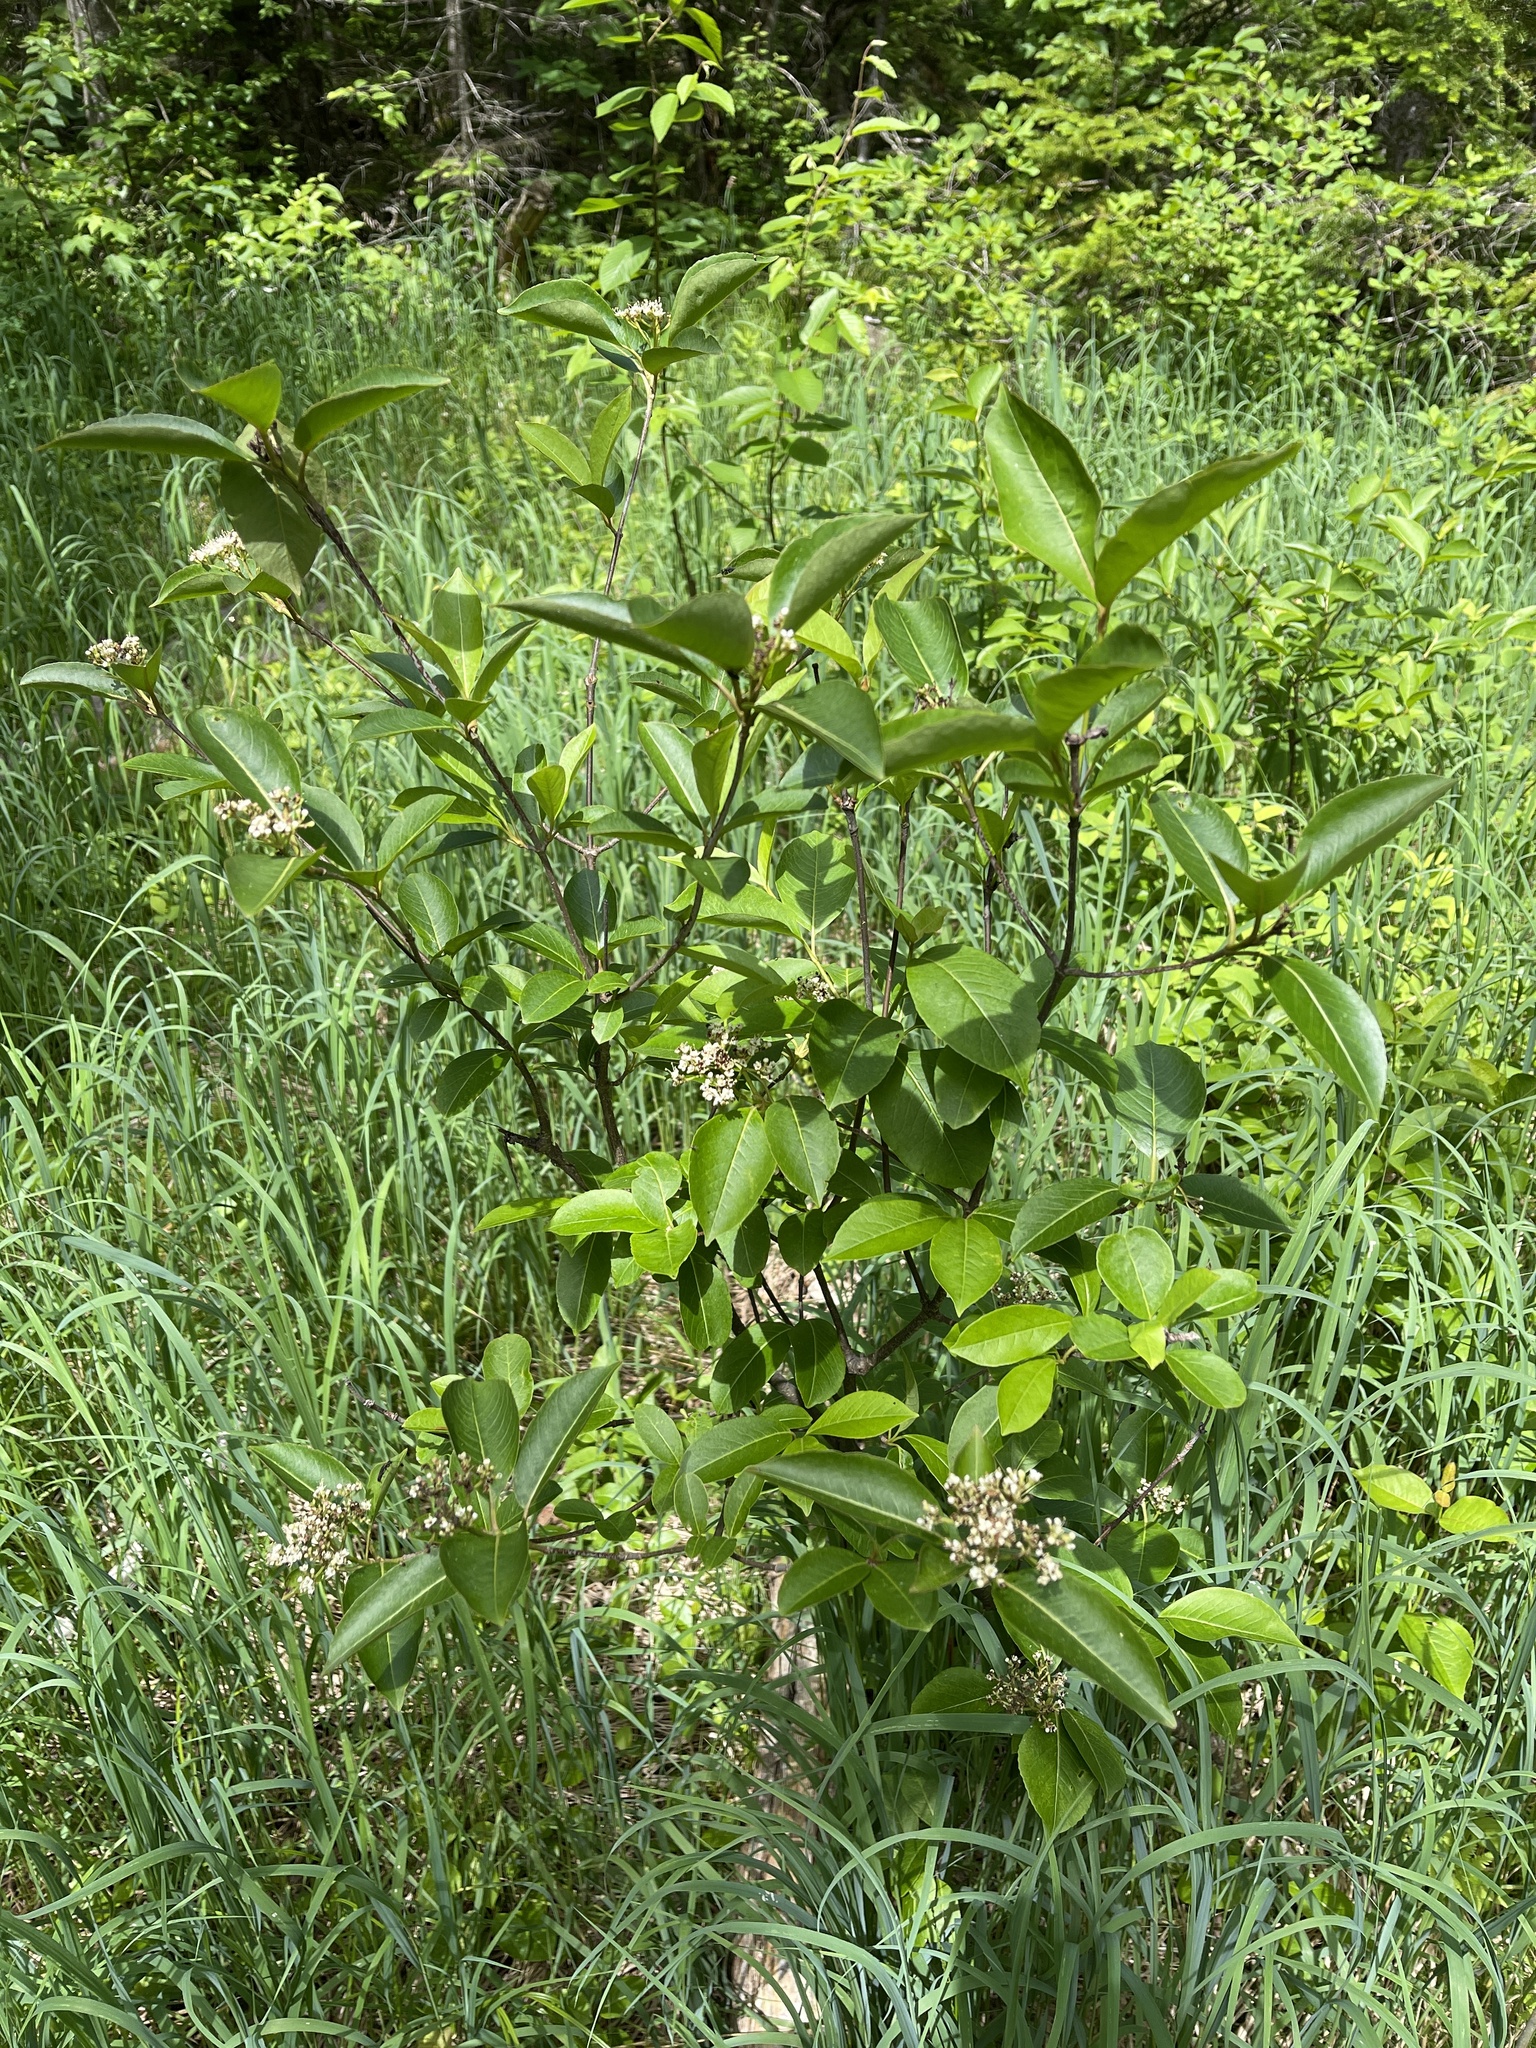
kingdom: Plantae
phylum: Tracheophyta
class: Magnoliopsida
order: Dipsacales
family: Viburnaceae
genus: Viburnum
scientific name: Viburnum cassinoides
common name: Swamp haw
